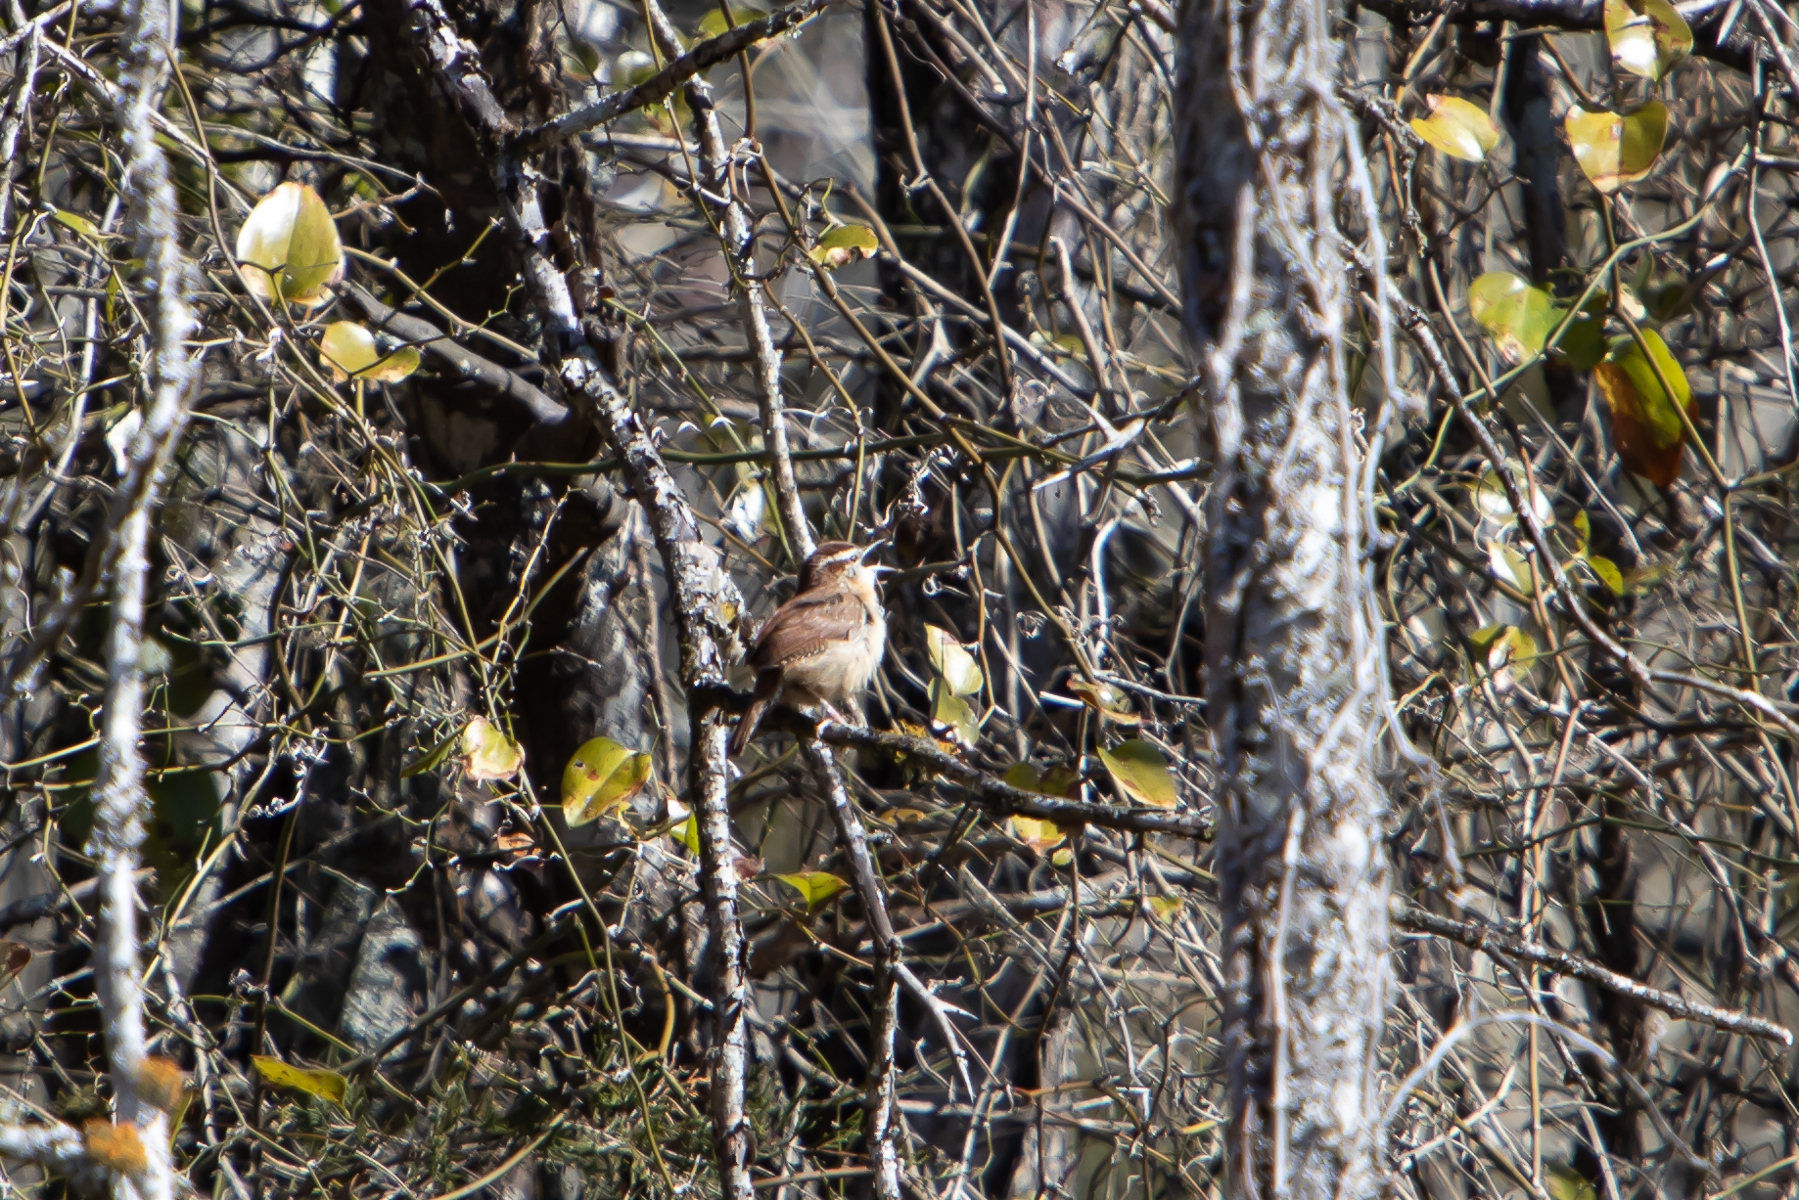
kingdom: Animalia
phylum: Chordata
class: Aves
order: Passeriformes
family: Troglodytidae
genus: Thryothorus
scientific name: Thryothorus ludovicianus
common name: Carolina wren
